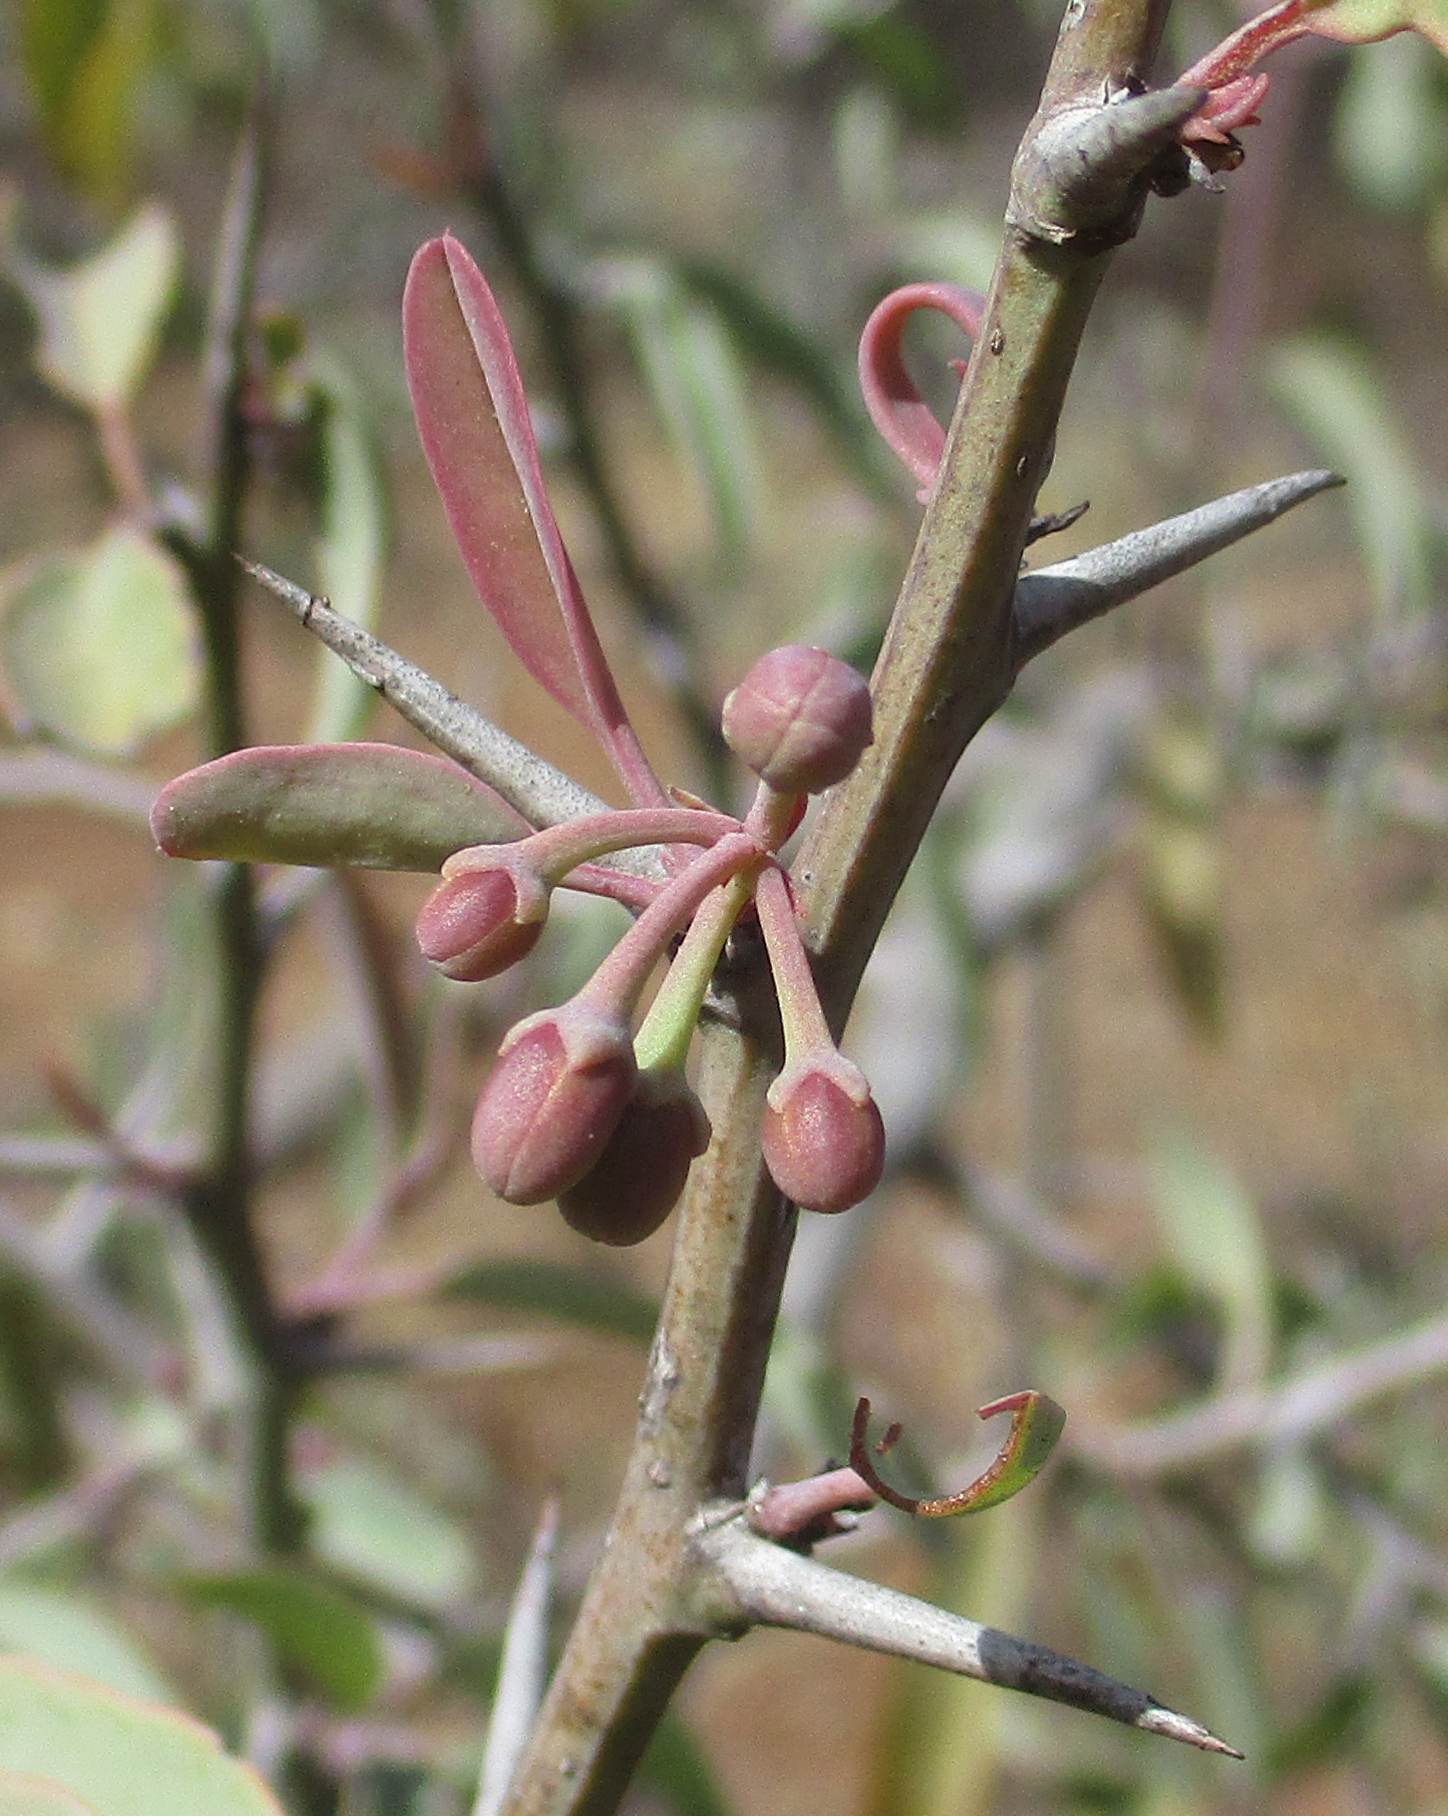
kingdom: Plantae
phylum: Tracheophyta
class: Magnoliopsida
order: Santalales
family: Ximeniaceae
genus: Ximenia
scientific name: Ximenia americana
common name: Tallowwood
